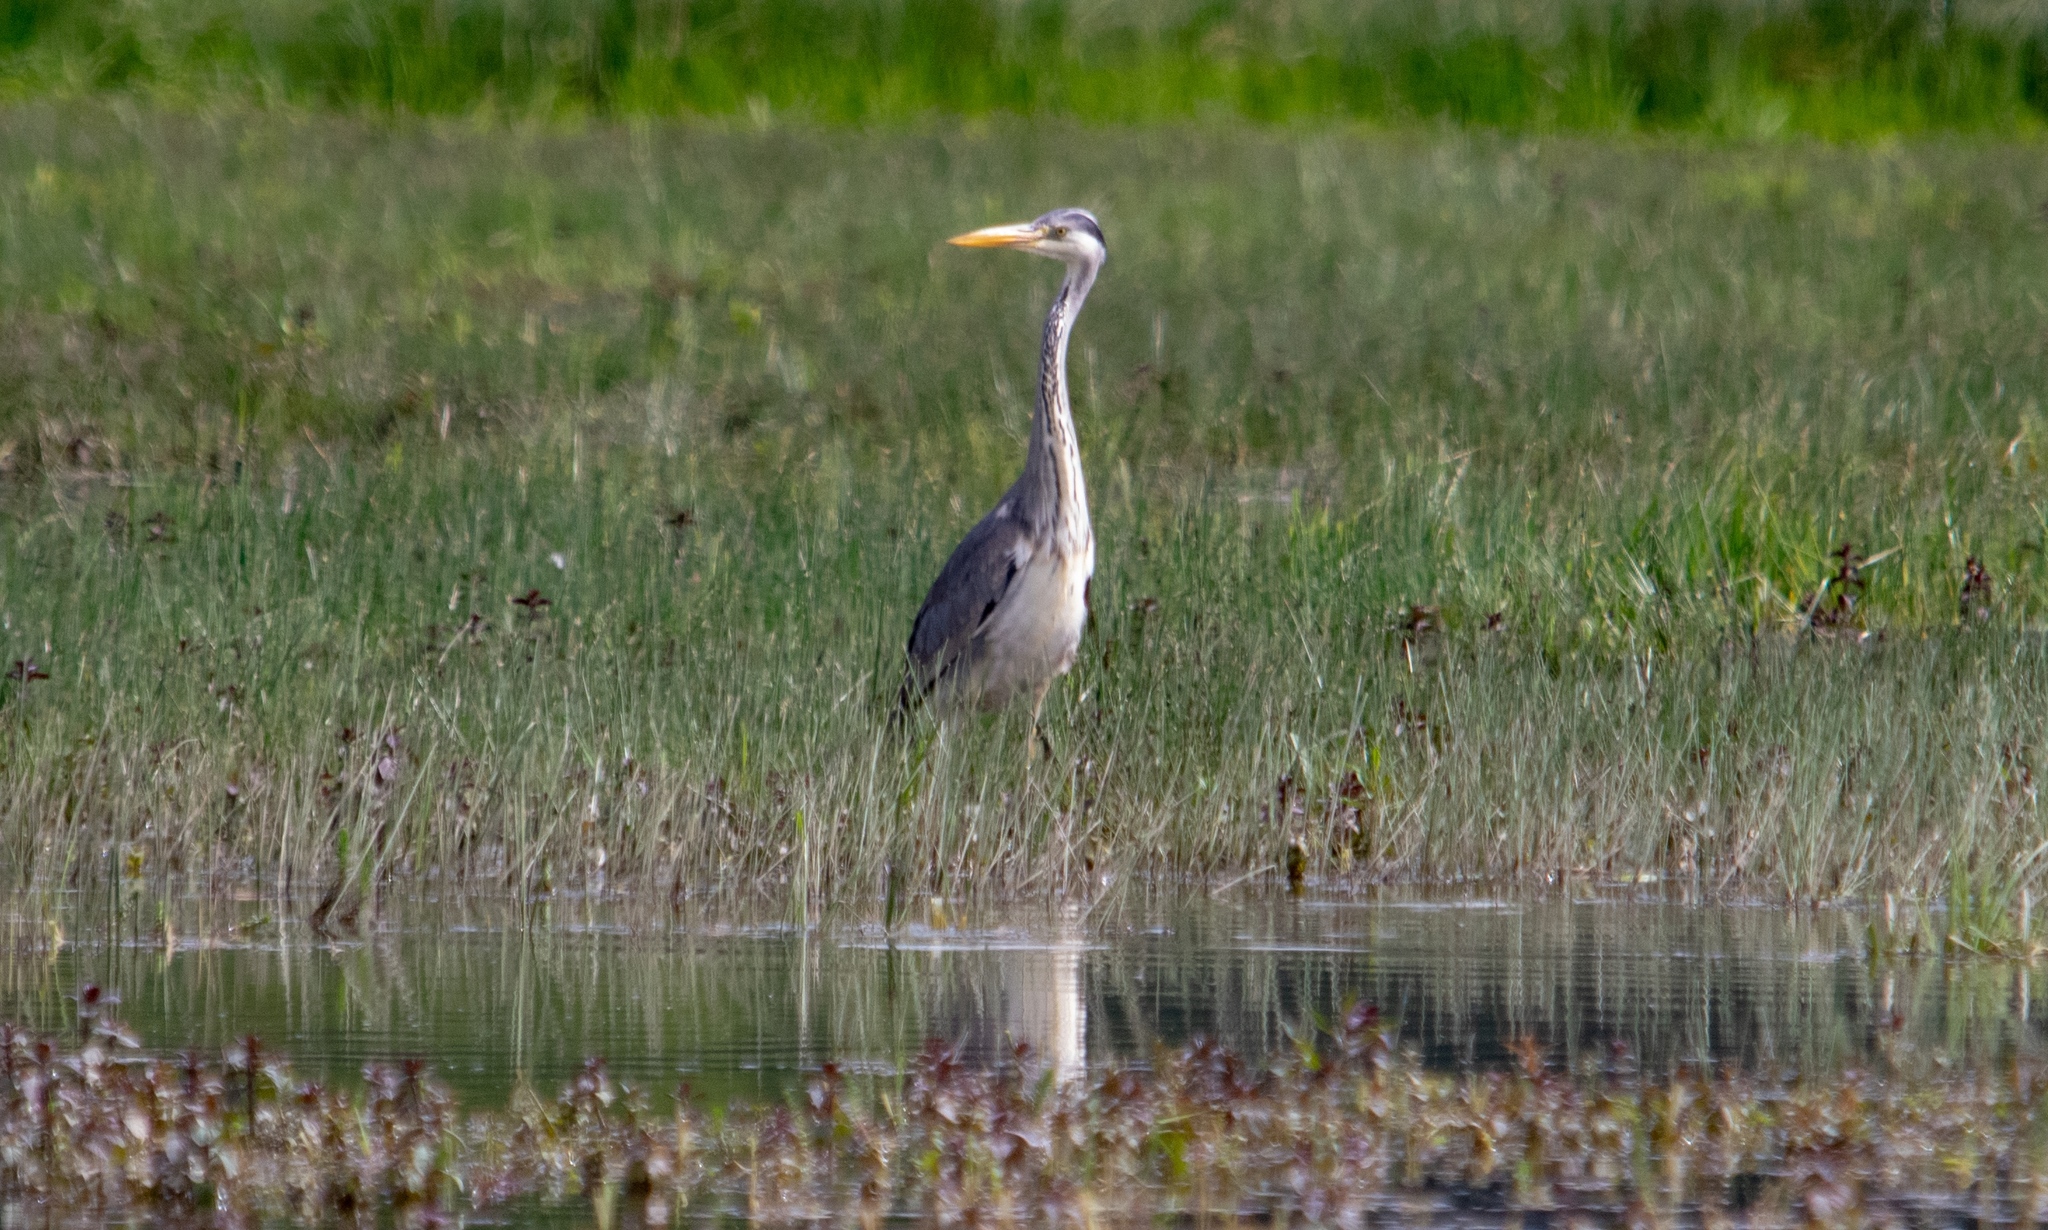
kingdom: Animalia
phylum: Chordata
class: Aves
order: Pelecaniformes
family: Ardeidae
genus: Ardea
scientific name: Ardea cinerea
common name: Grey heron
